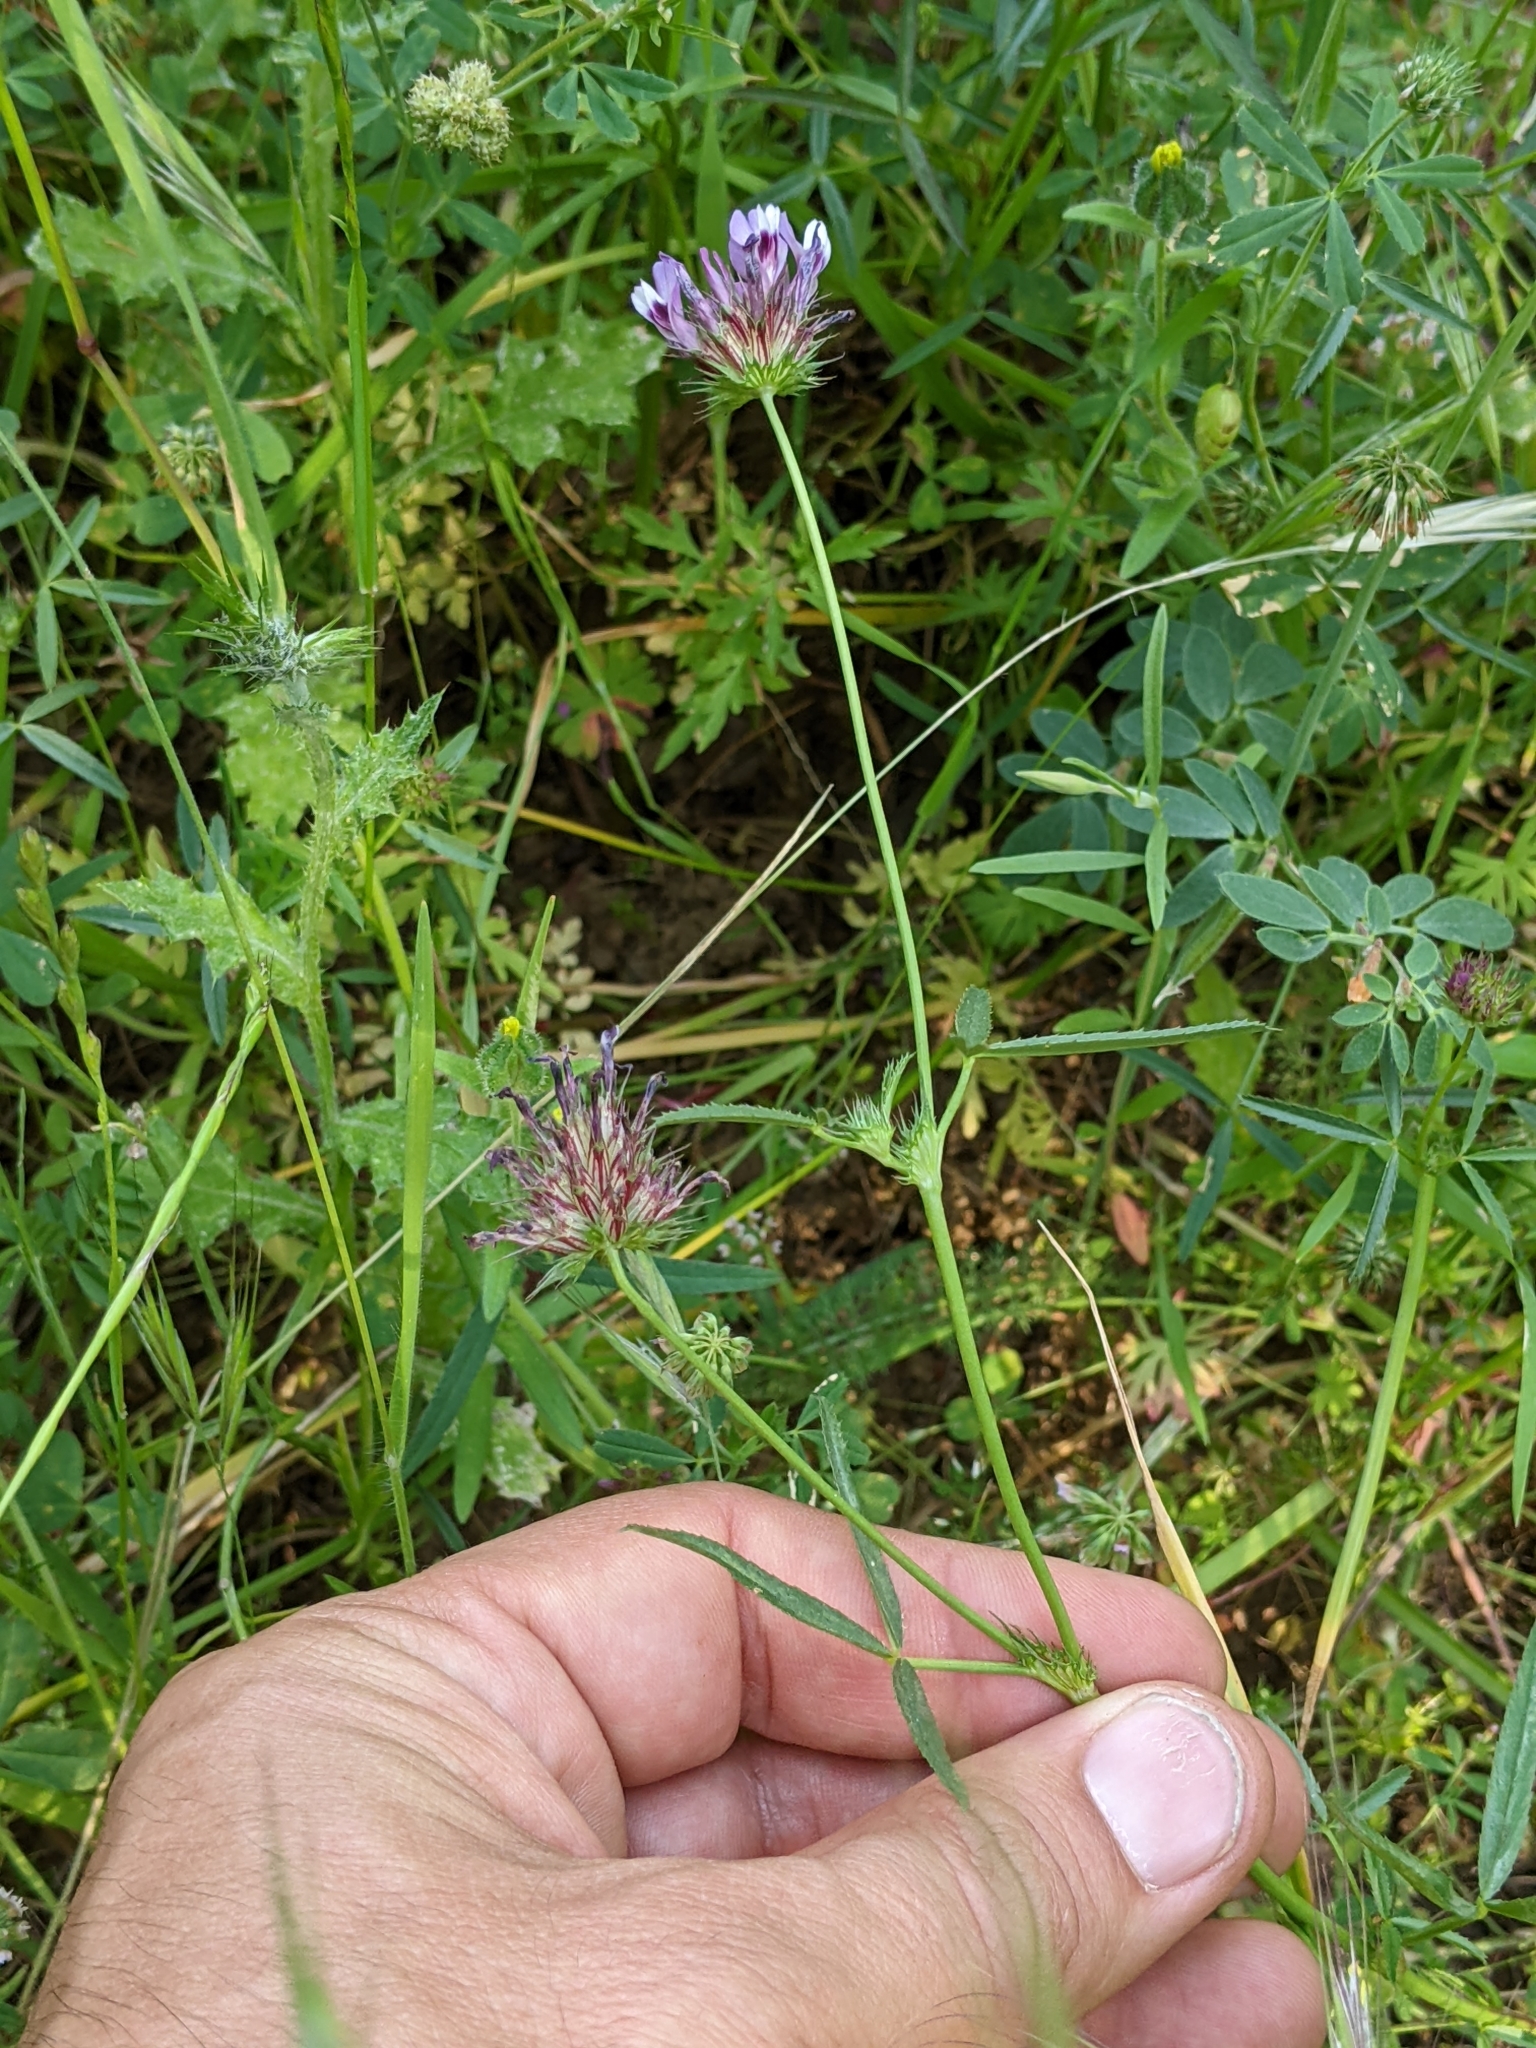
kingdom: Plantae
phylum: Tracheophyta
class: Magnoliopsida
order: Fabales
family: Fabaceae
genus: Trifolium
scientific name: Trifolium willdenovii
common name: Tomcat clover
